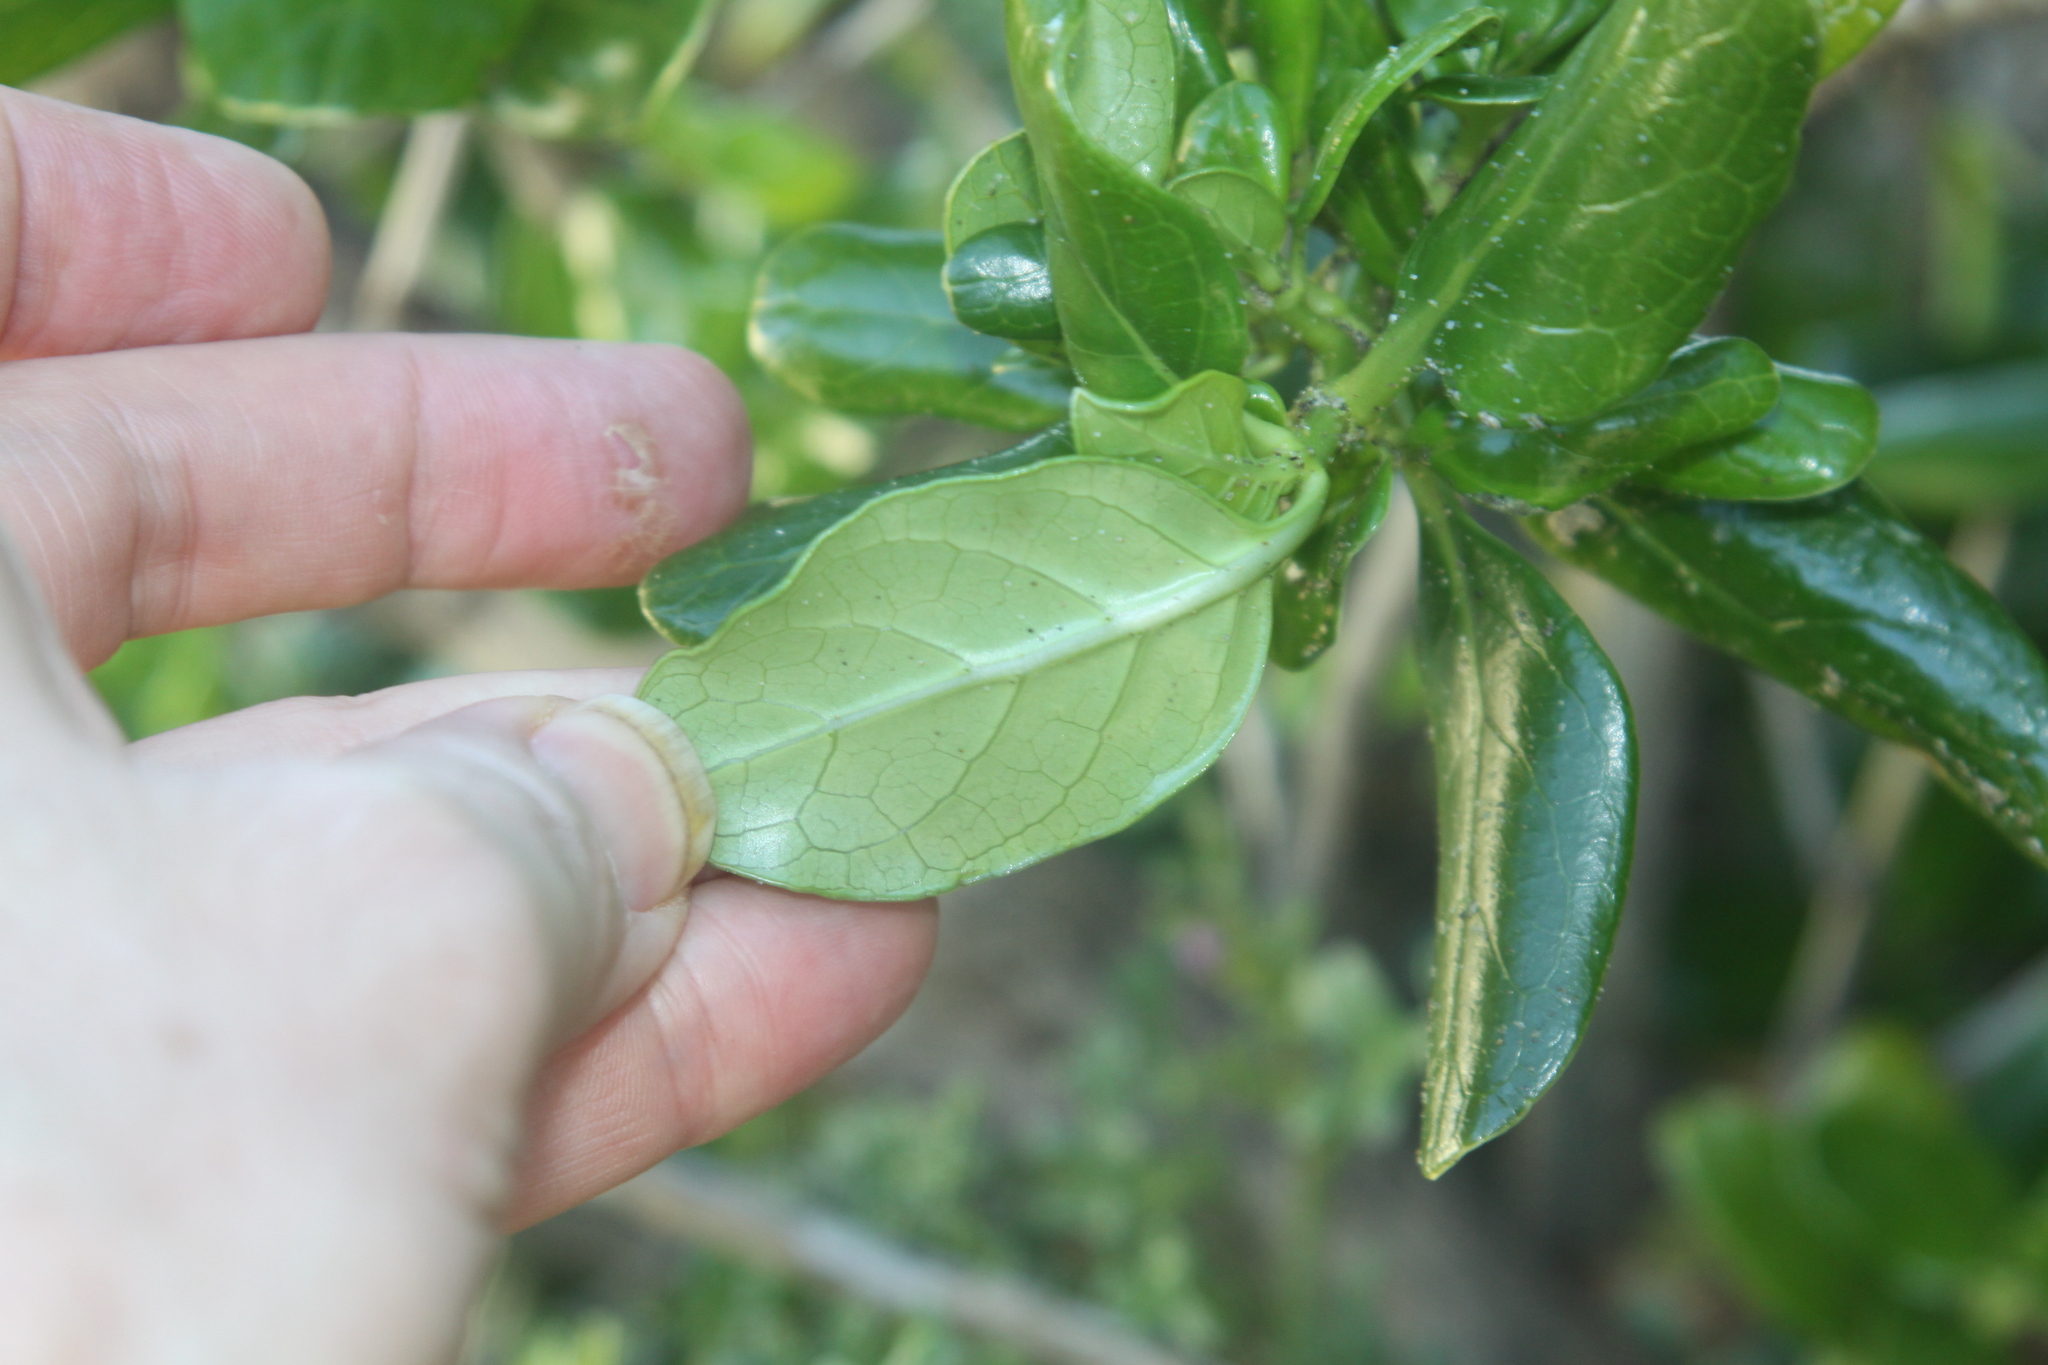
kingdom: Plantae
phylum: Tracheophyta
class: Magnoliopsida
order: Gentianales
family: Rubiaceae
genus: Coprosma
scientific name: Coprosma repens
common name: Tree bedstraw
